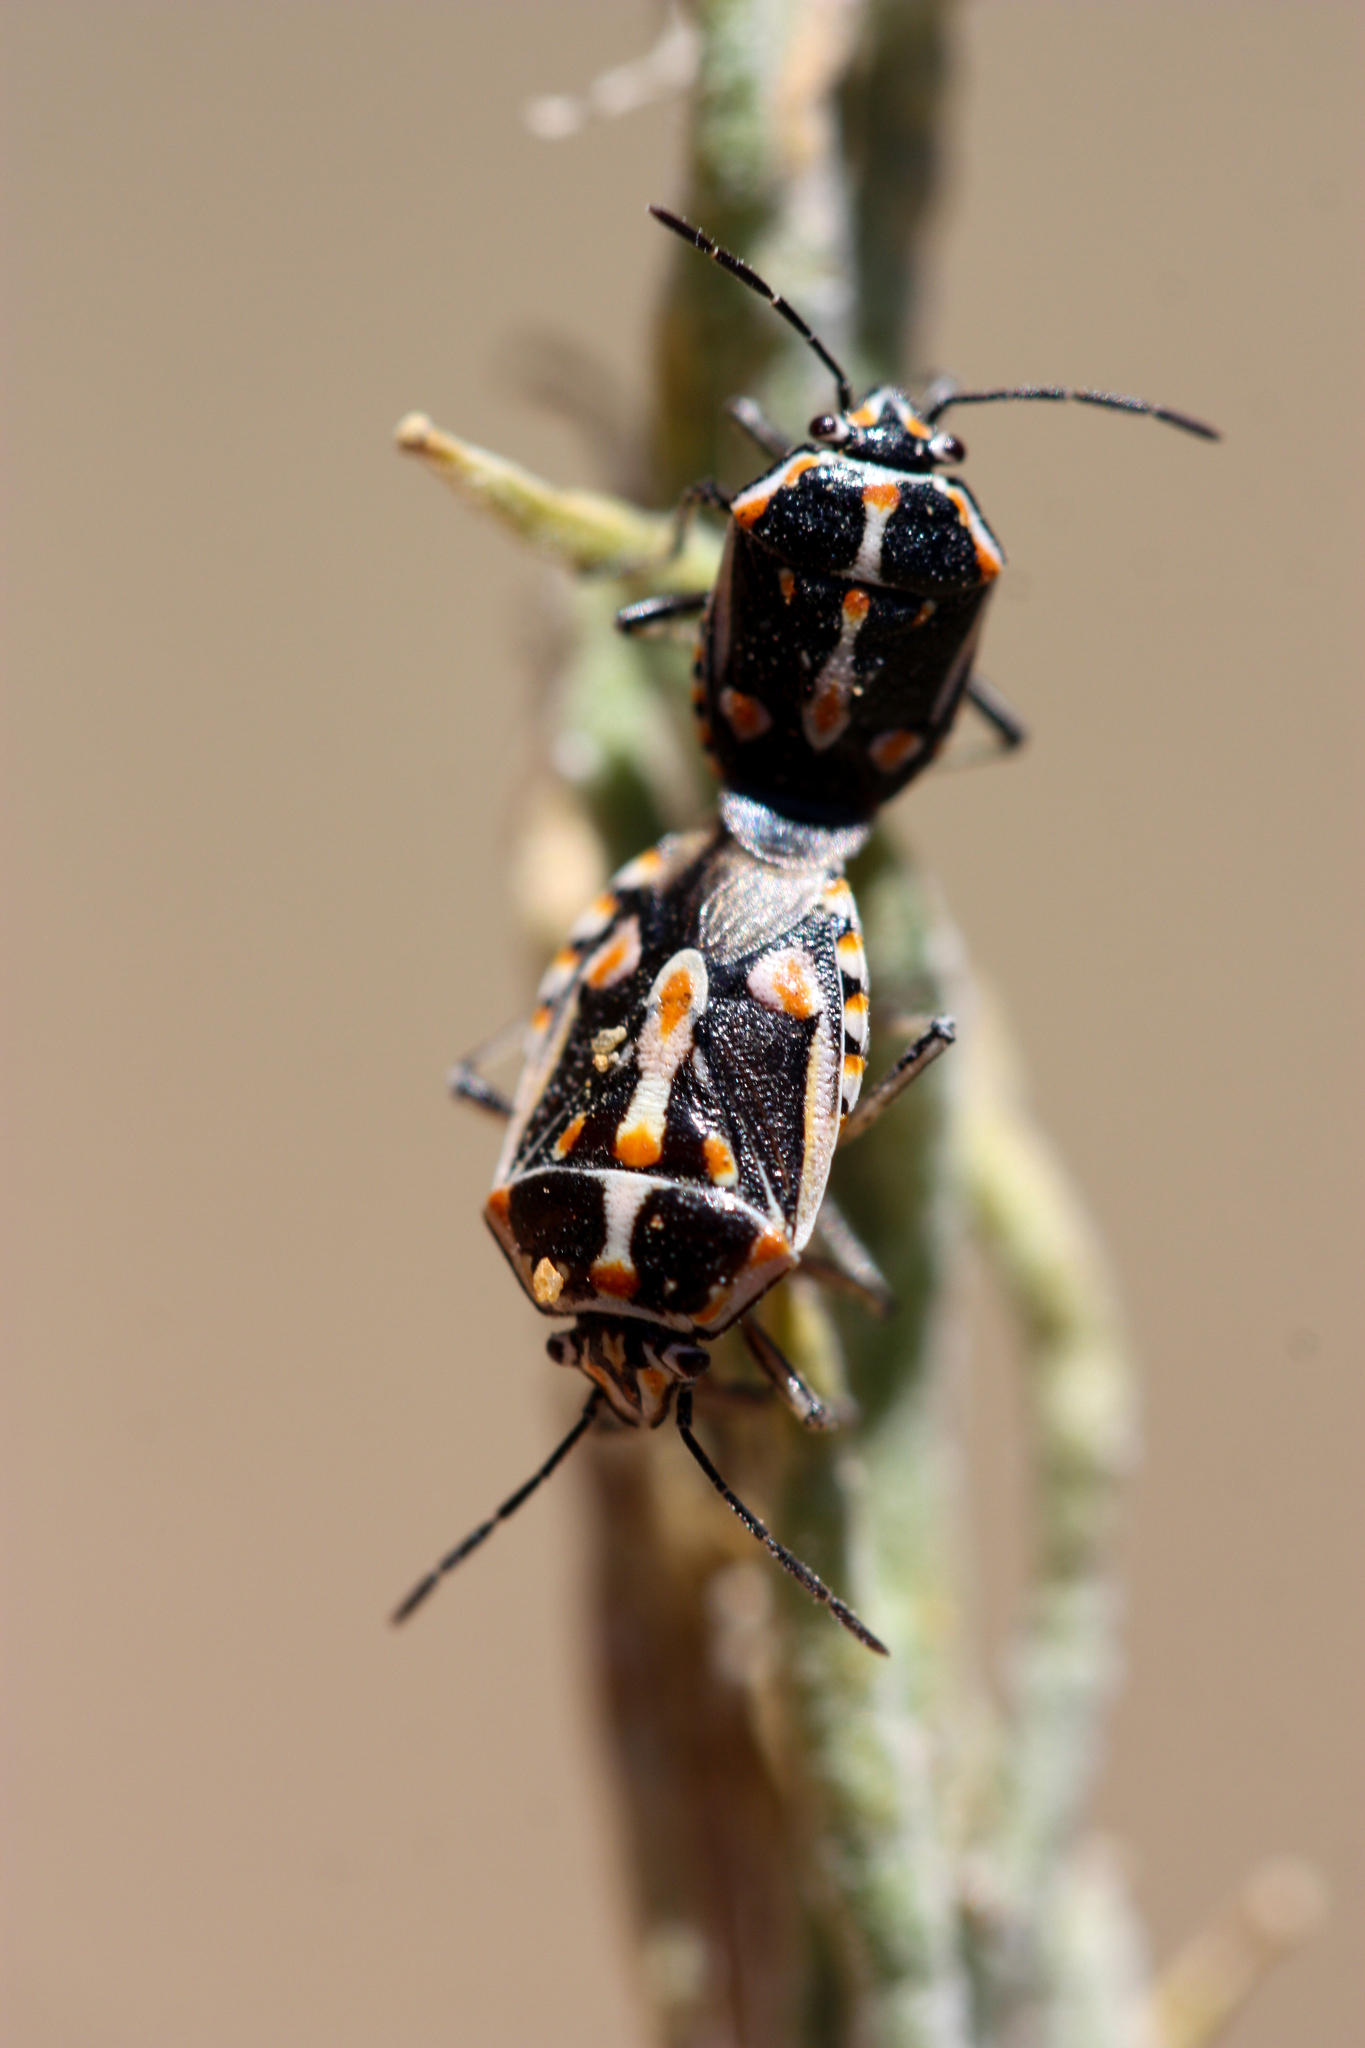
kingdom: Animalia
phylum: Arthropoda
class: Insecta
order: Hemiptera
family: Pentatomidae
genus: Bagrada
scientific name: Bagrada hilaris
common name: Bagrada bug
